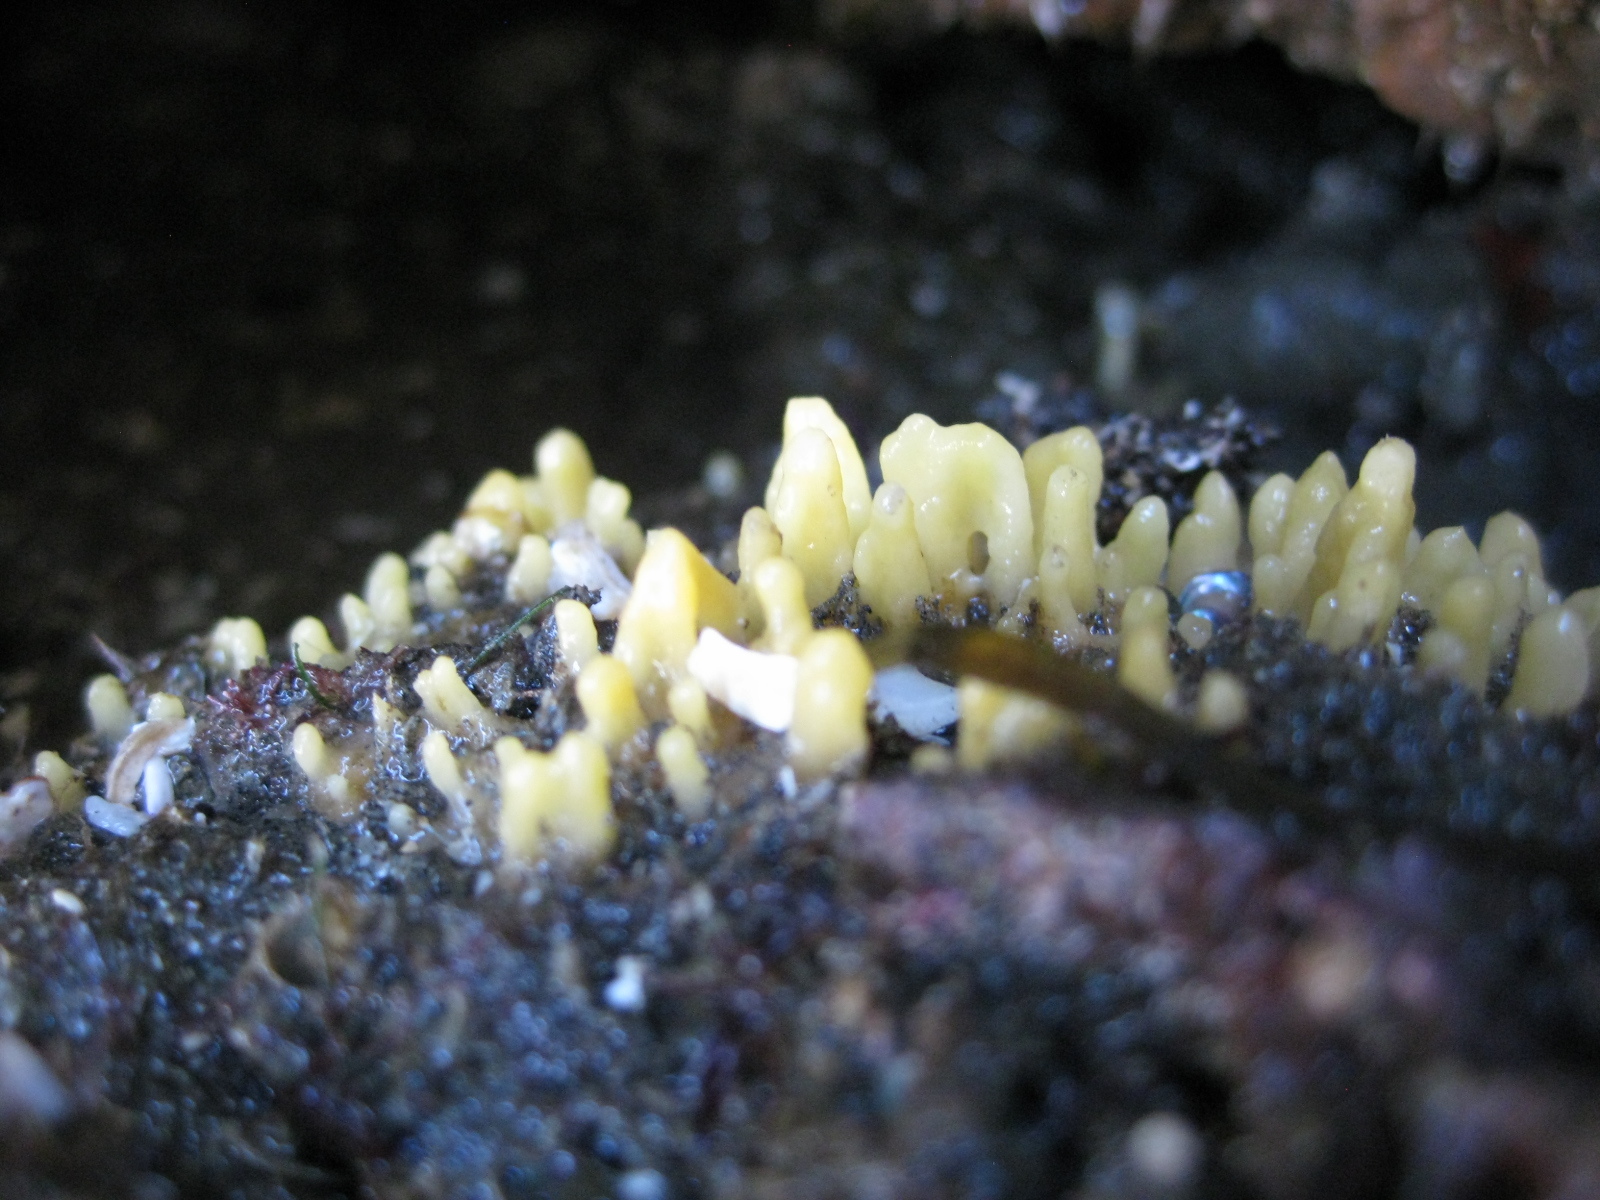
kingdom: Animalia
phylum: Porifera
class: Demospongiae
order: Suberitida
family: Halichondriidae
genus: Ciocalypta
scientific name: Ciocalypta polymastia
